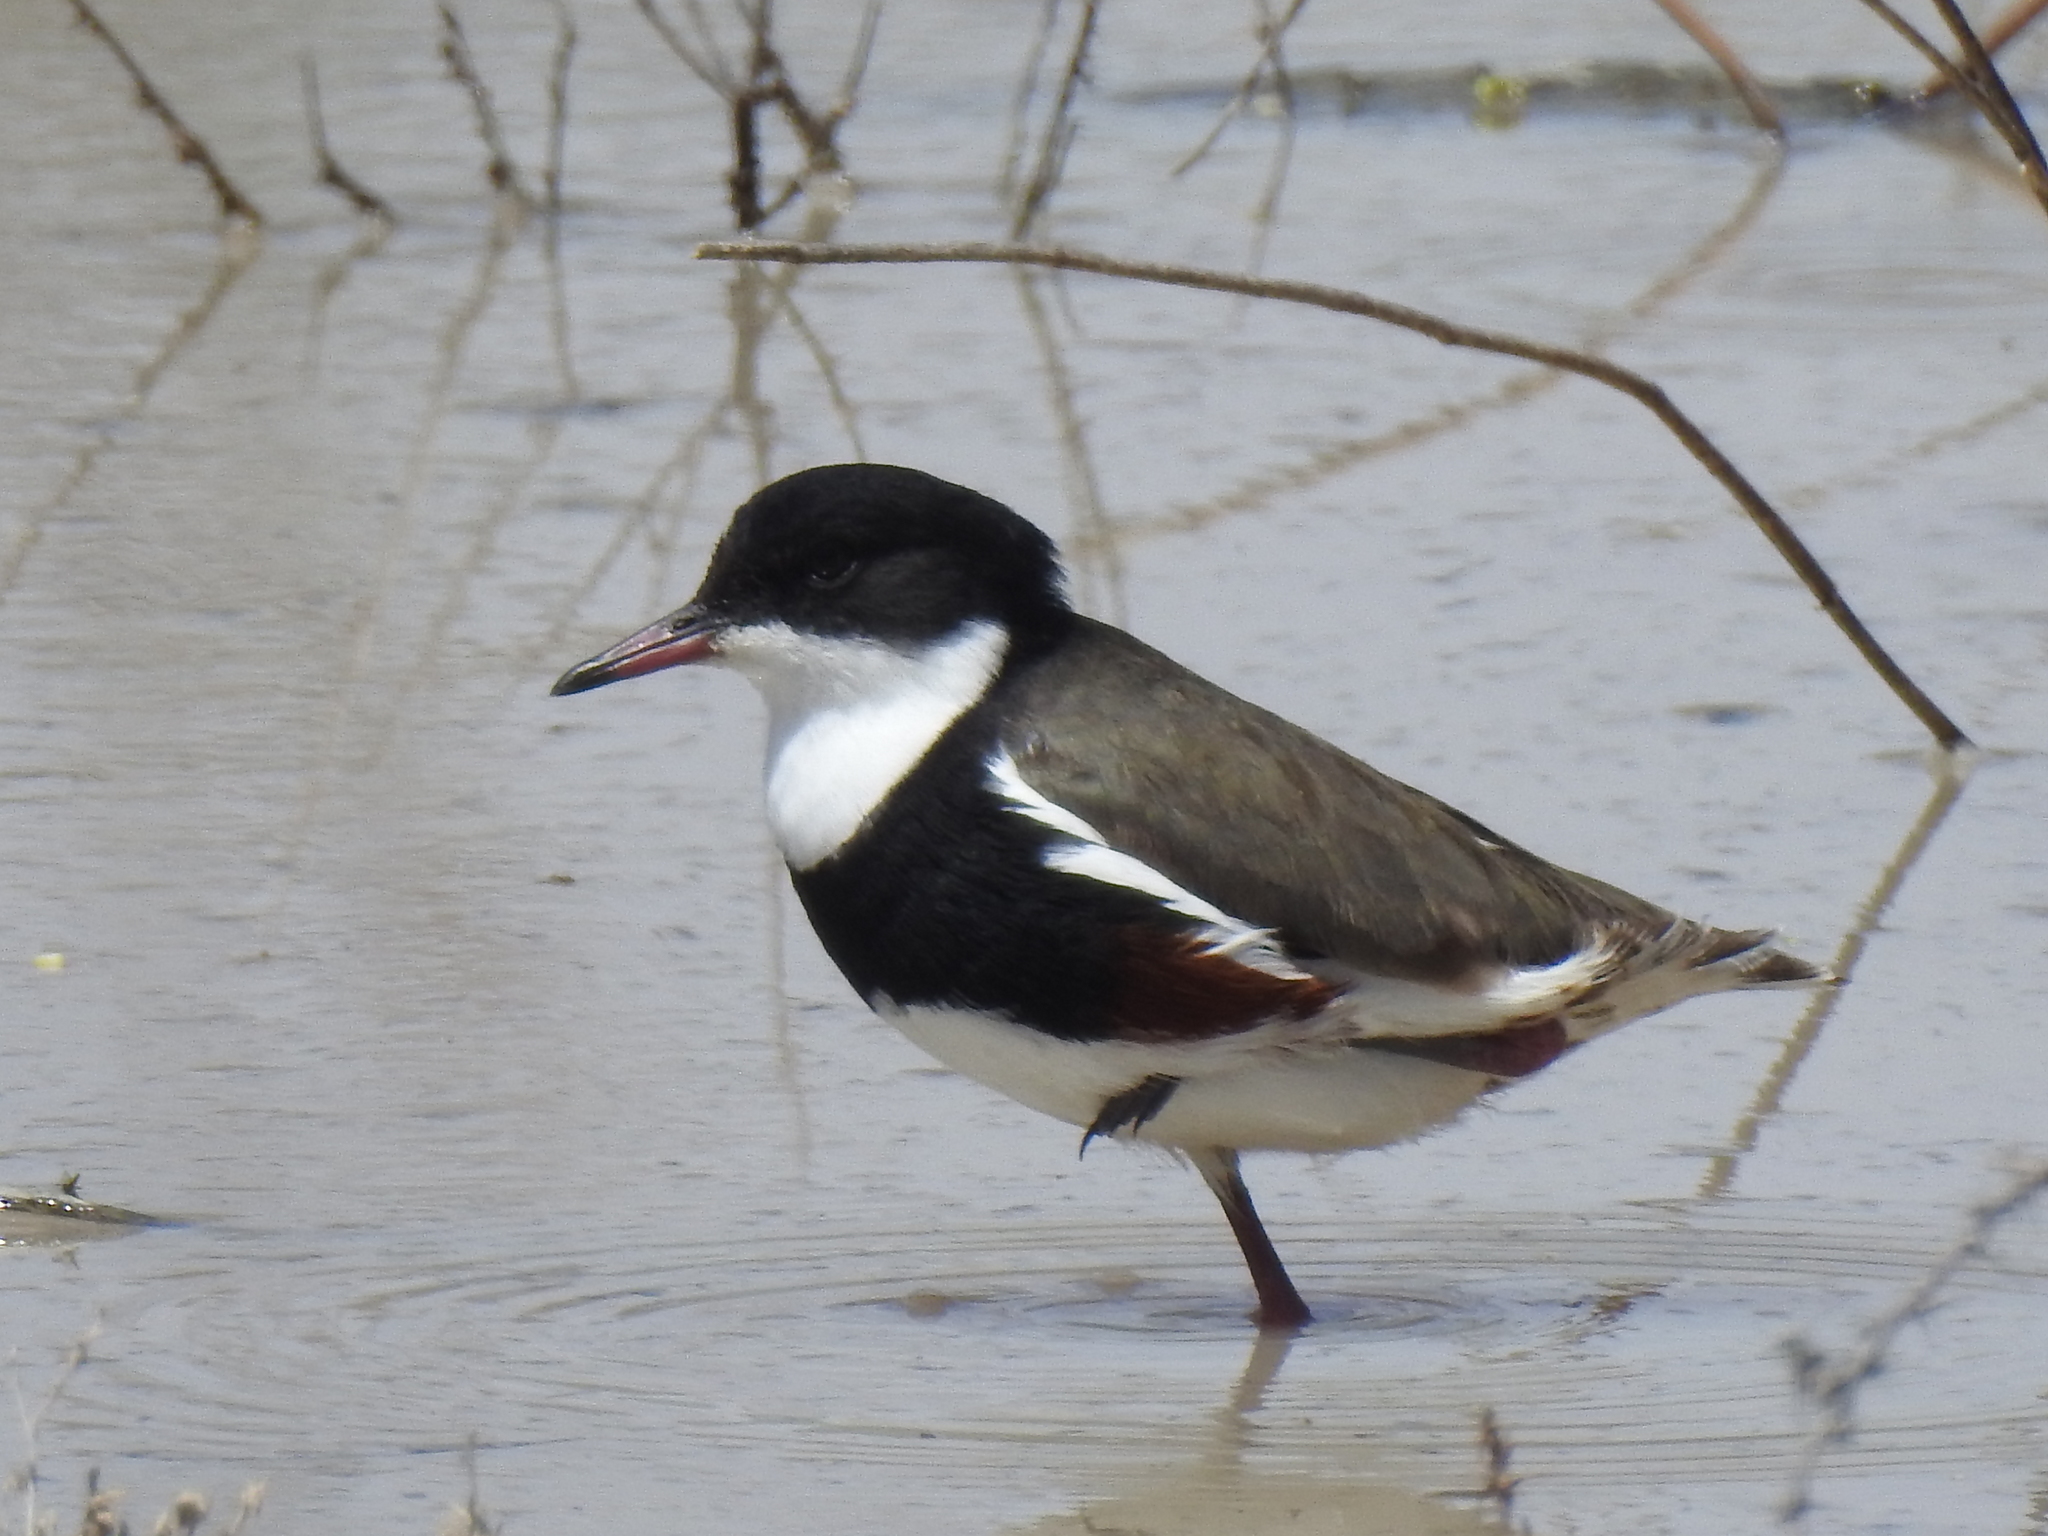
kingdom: Animalia
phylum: Chordata
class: Aves
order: Charadriiformes
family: Charadriidae
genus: Erythrogonys
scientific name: Erythrogonys cinctus
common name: Red-kneed dotterel
